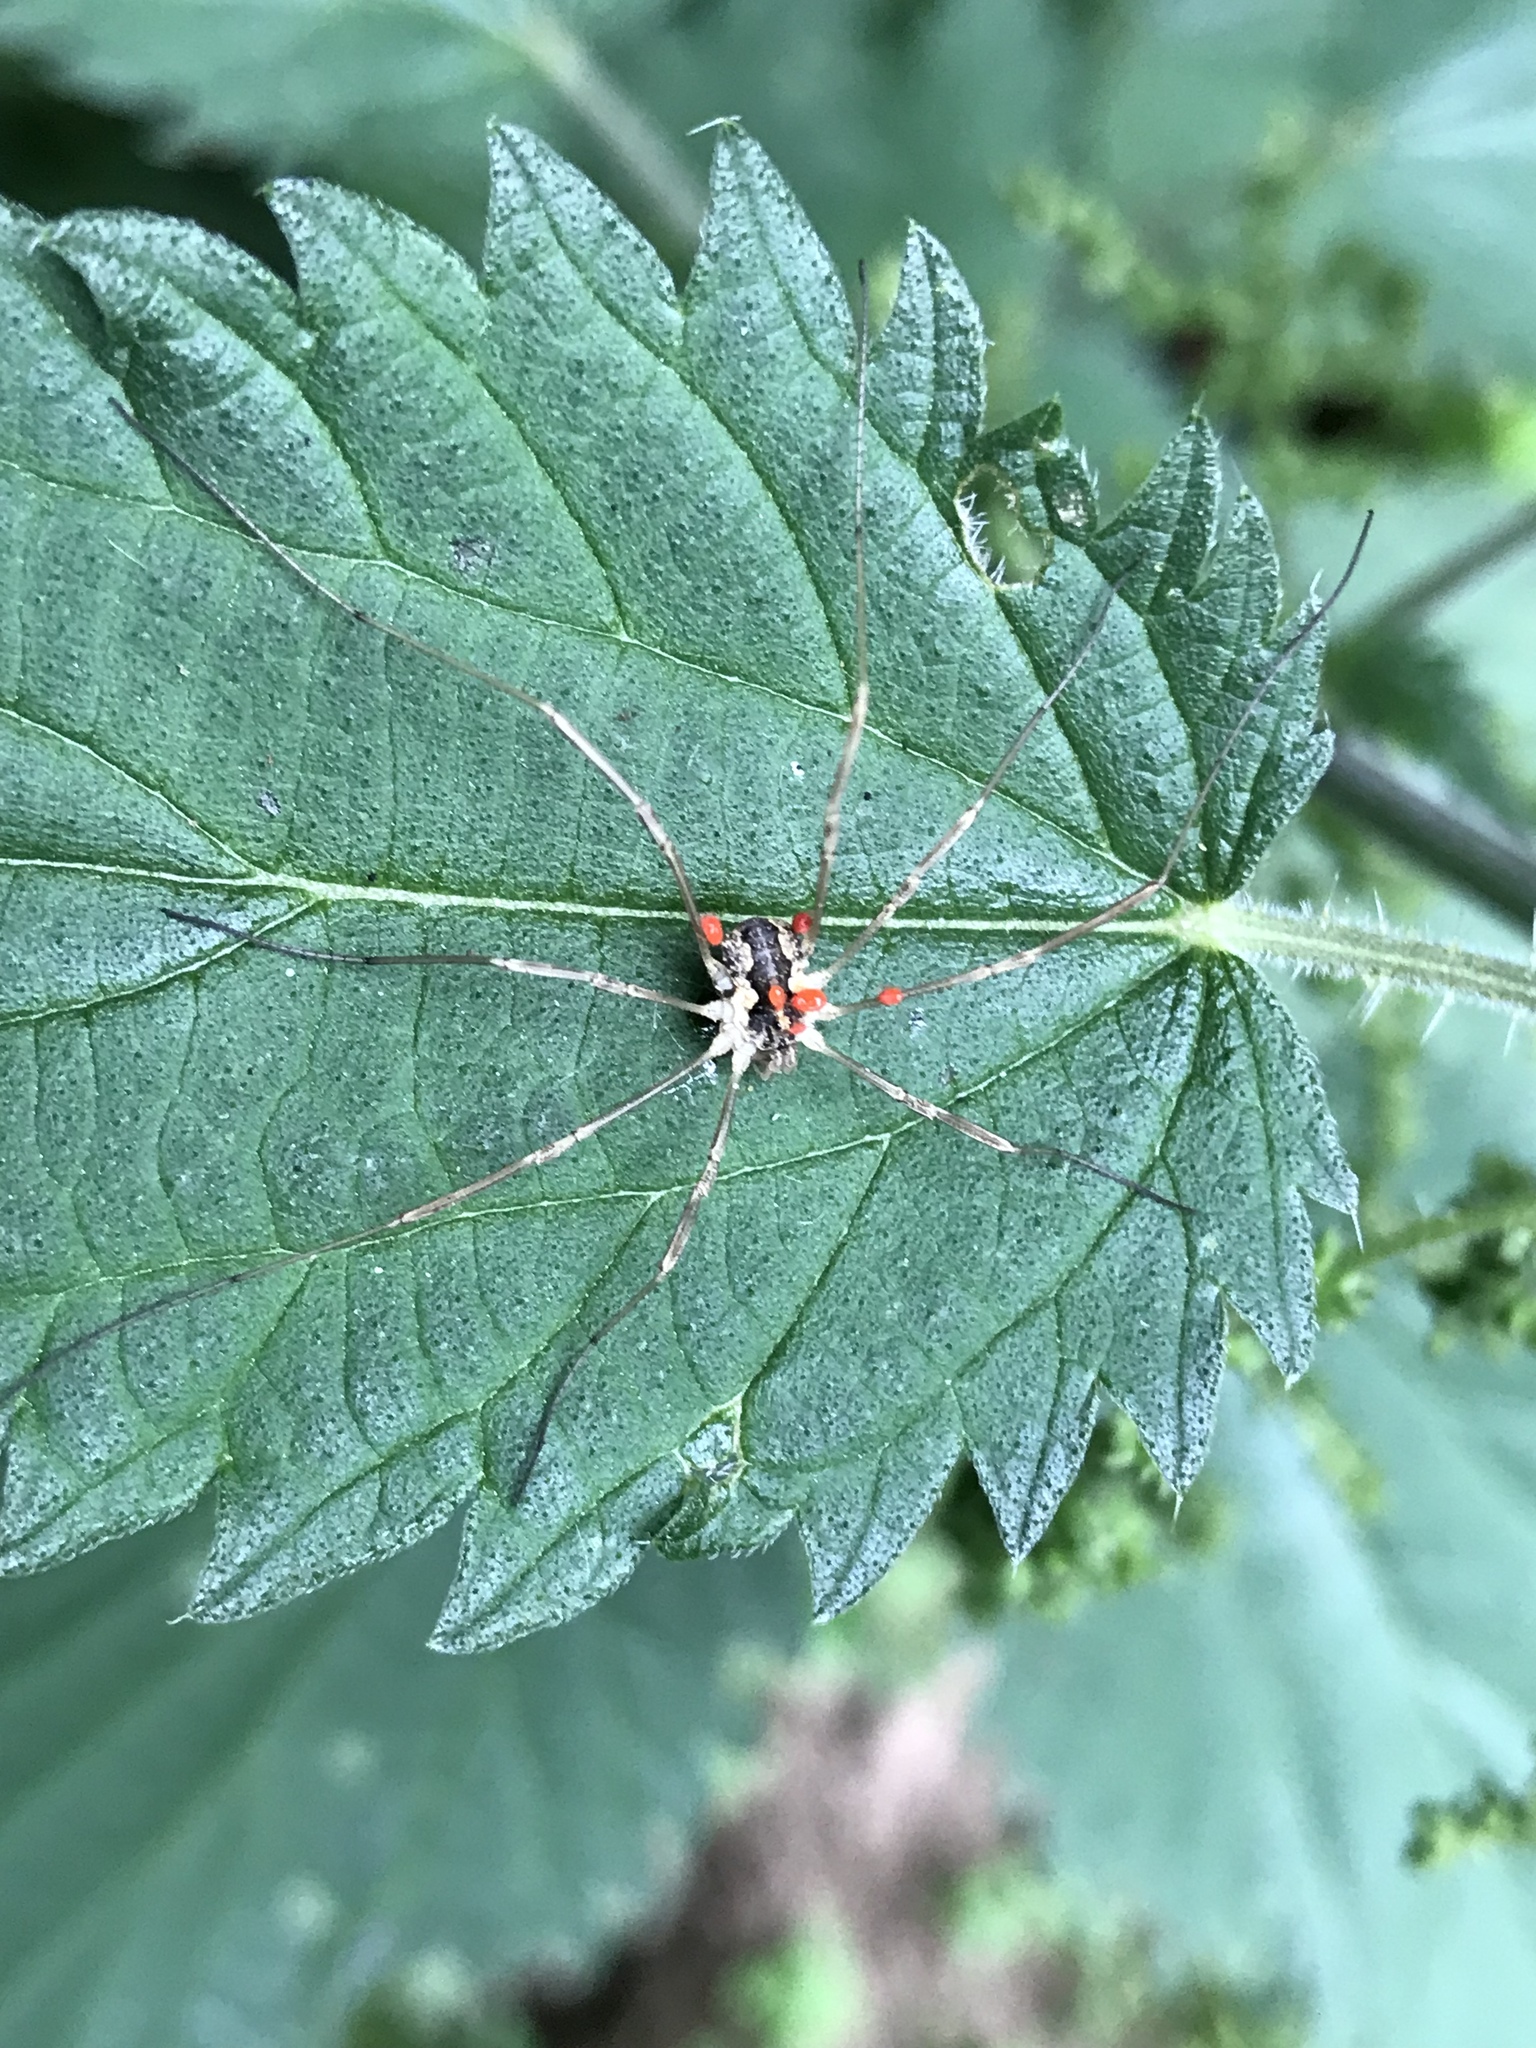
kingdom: Animalia
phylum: Arthropoda
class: Arachnida
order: Opiliones
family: Phalangiidae
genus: Mitopus
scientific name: Mitopus morio
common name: Saddleback harvestman
